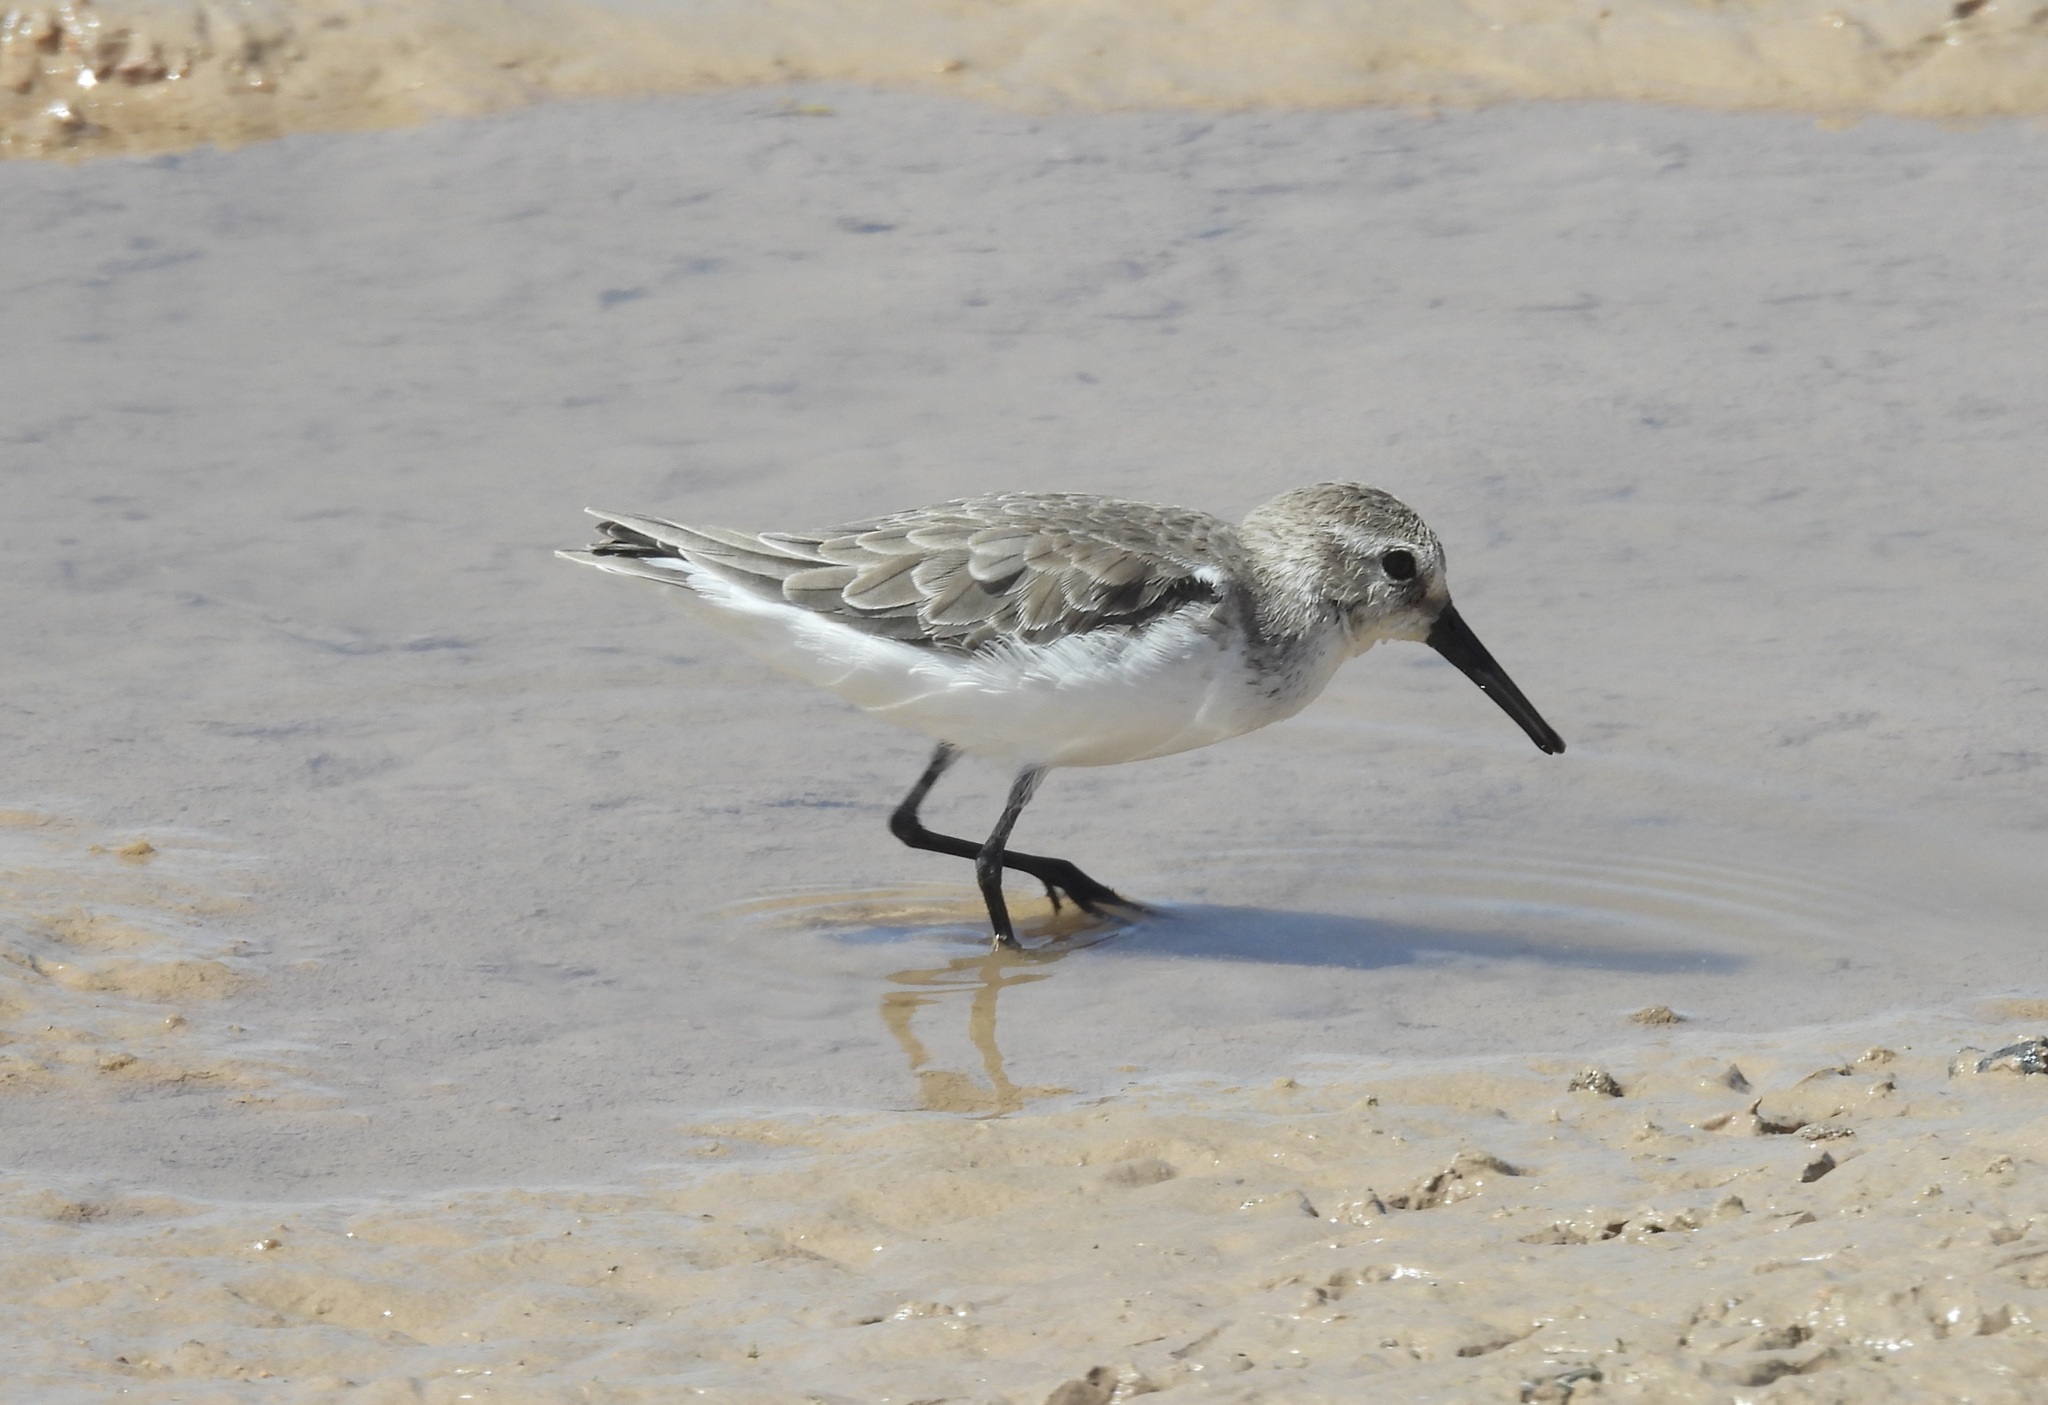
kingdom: Animalia
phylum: Chordata
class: Aves
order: Charadriiformes
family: Scolopacidae
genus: Calidris
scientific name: Calidris mauri
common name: Western sandpiper
